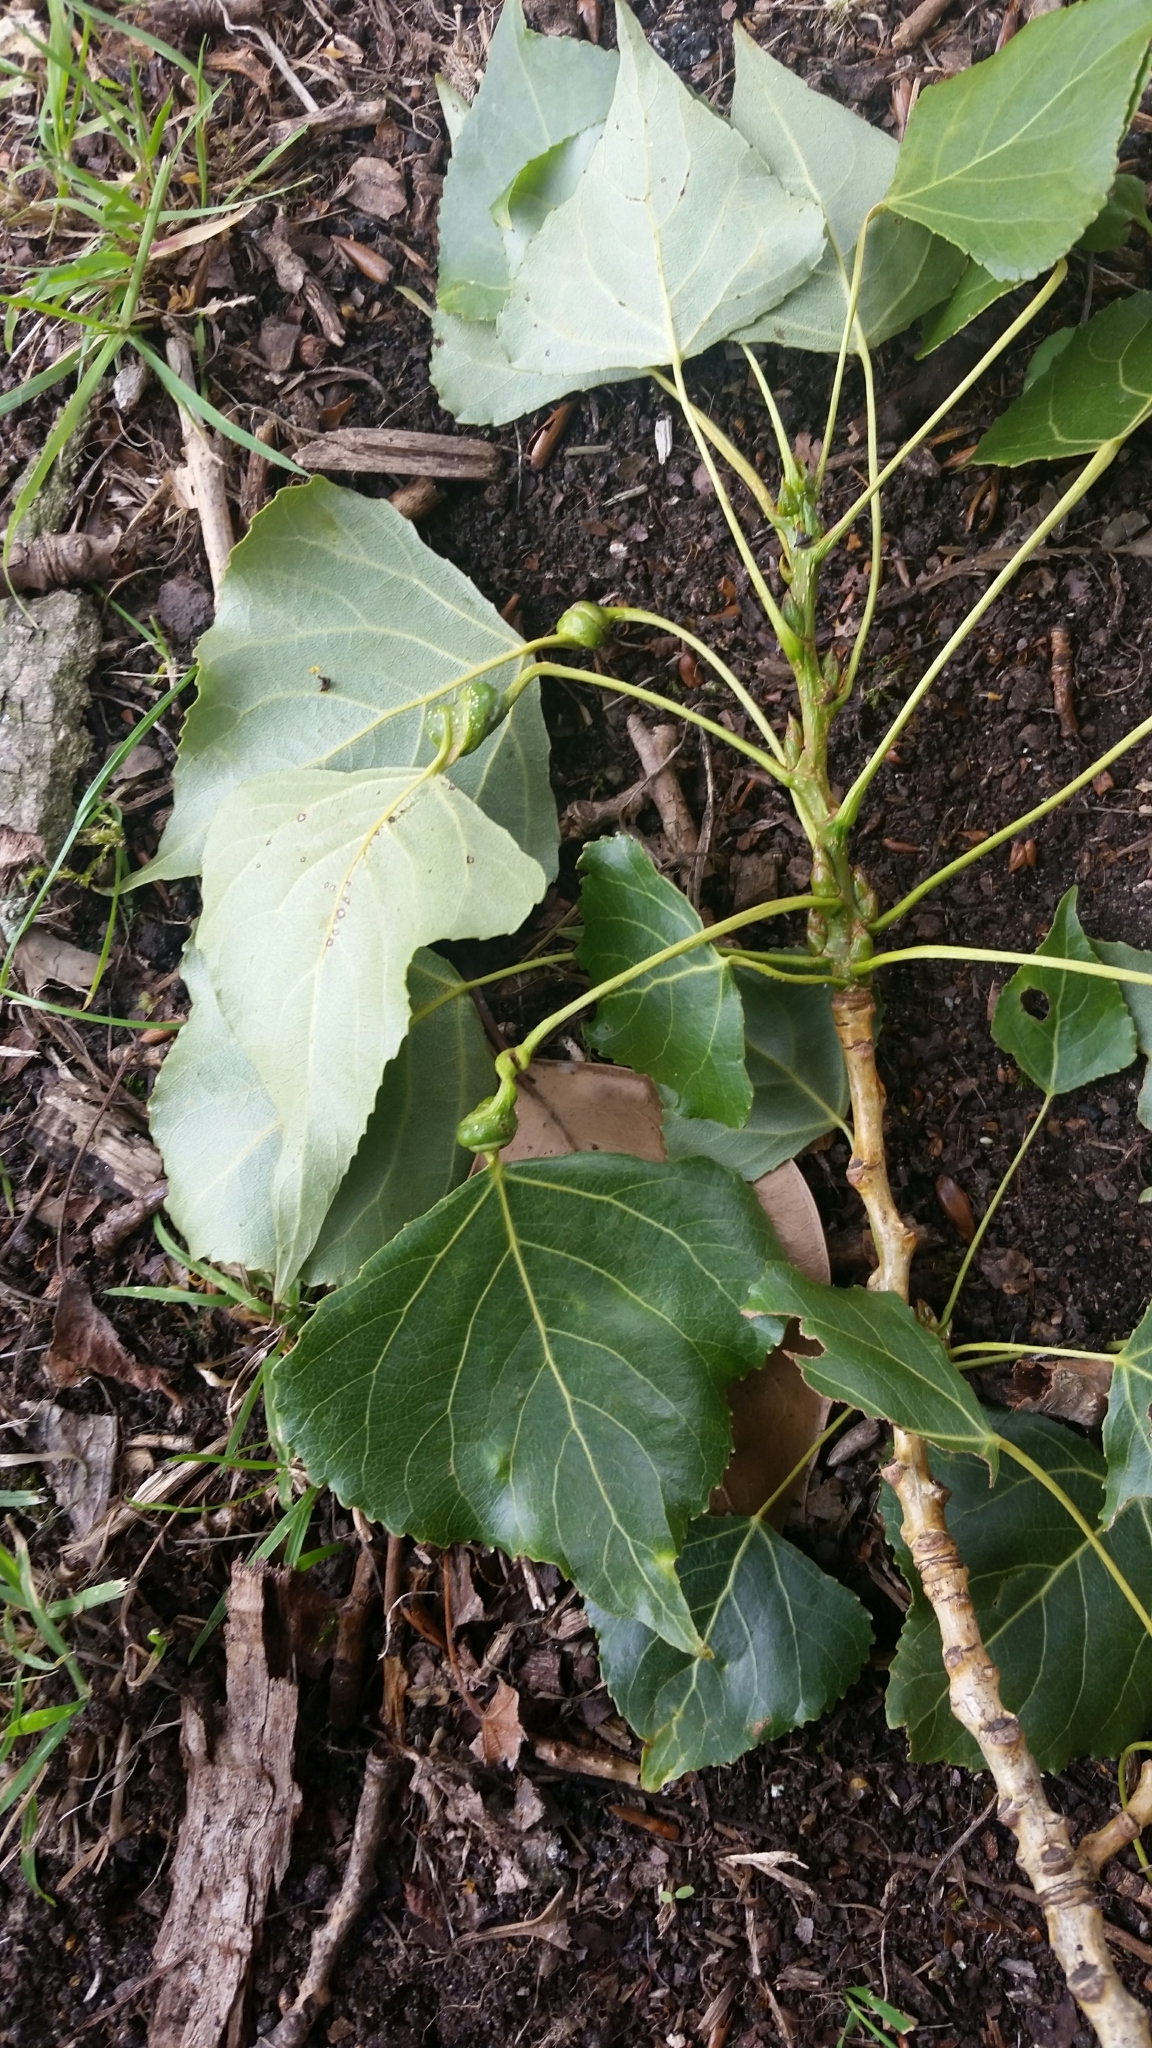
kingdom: Plantae
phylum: Tracheophyta
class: Magnoliopsida
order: Malpighiales
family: Salicaceae
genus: Populus
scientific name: Populus nigra
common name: Black poplar
